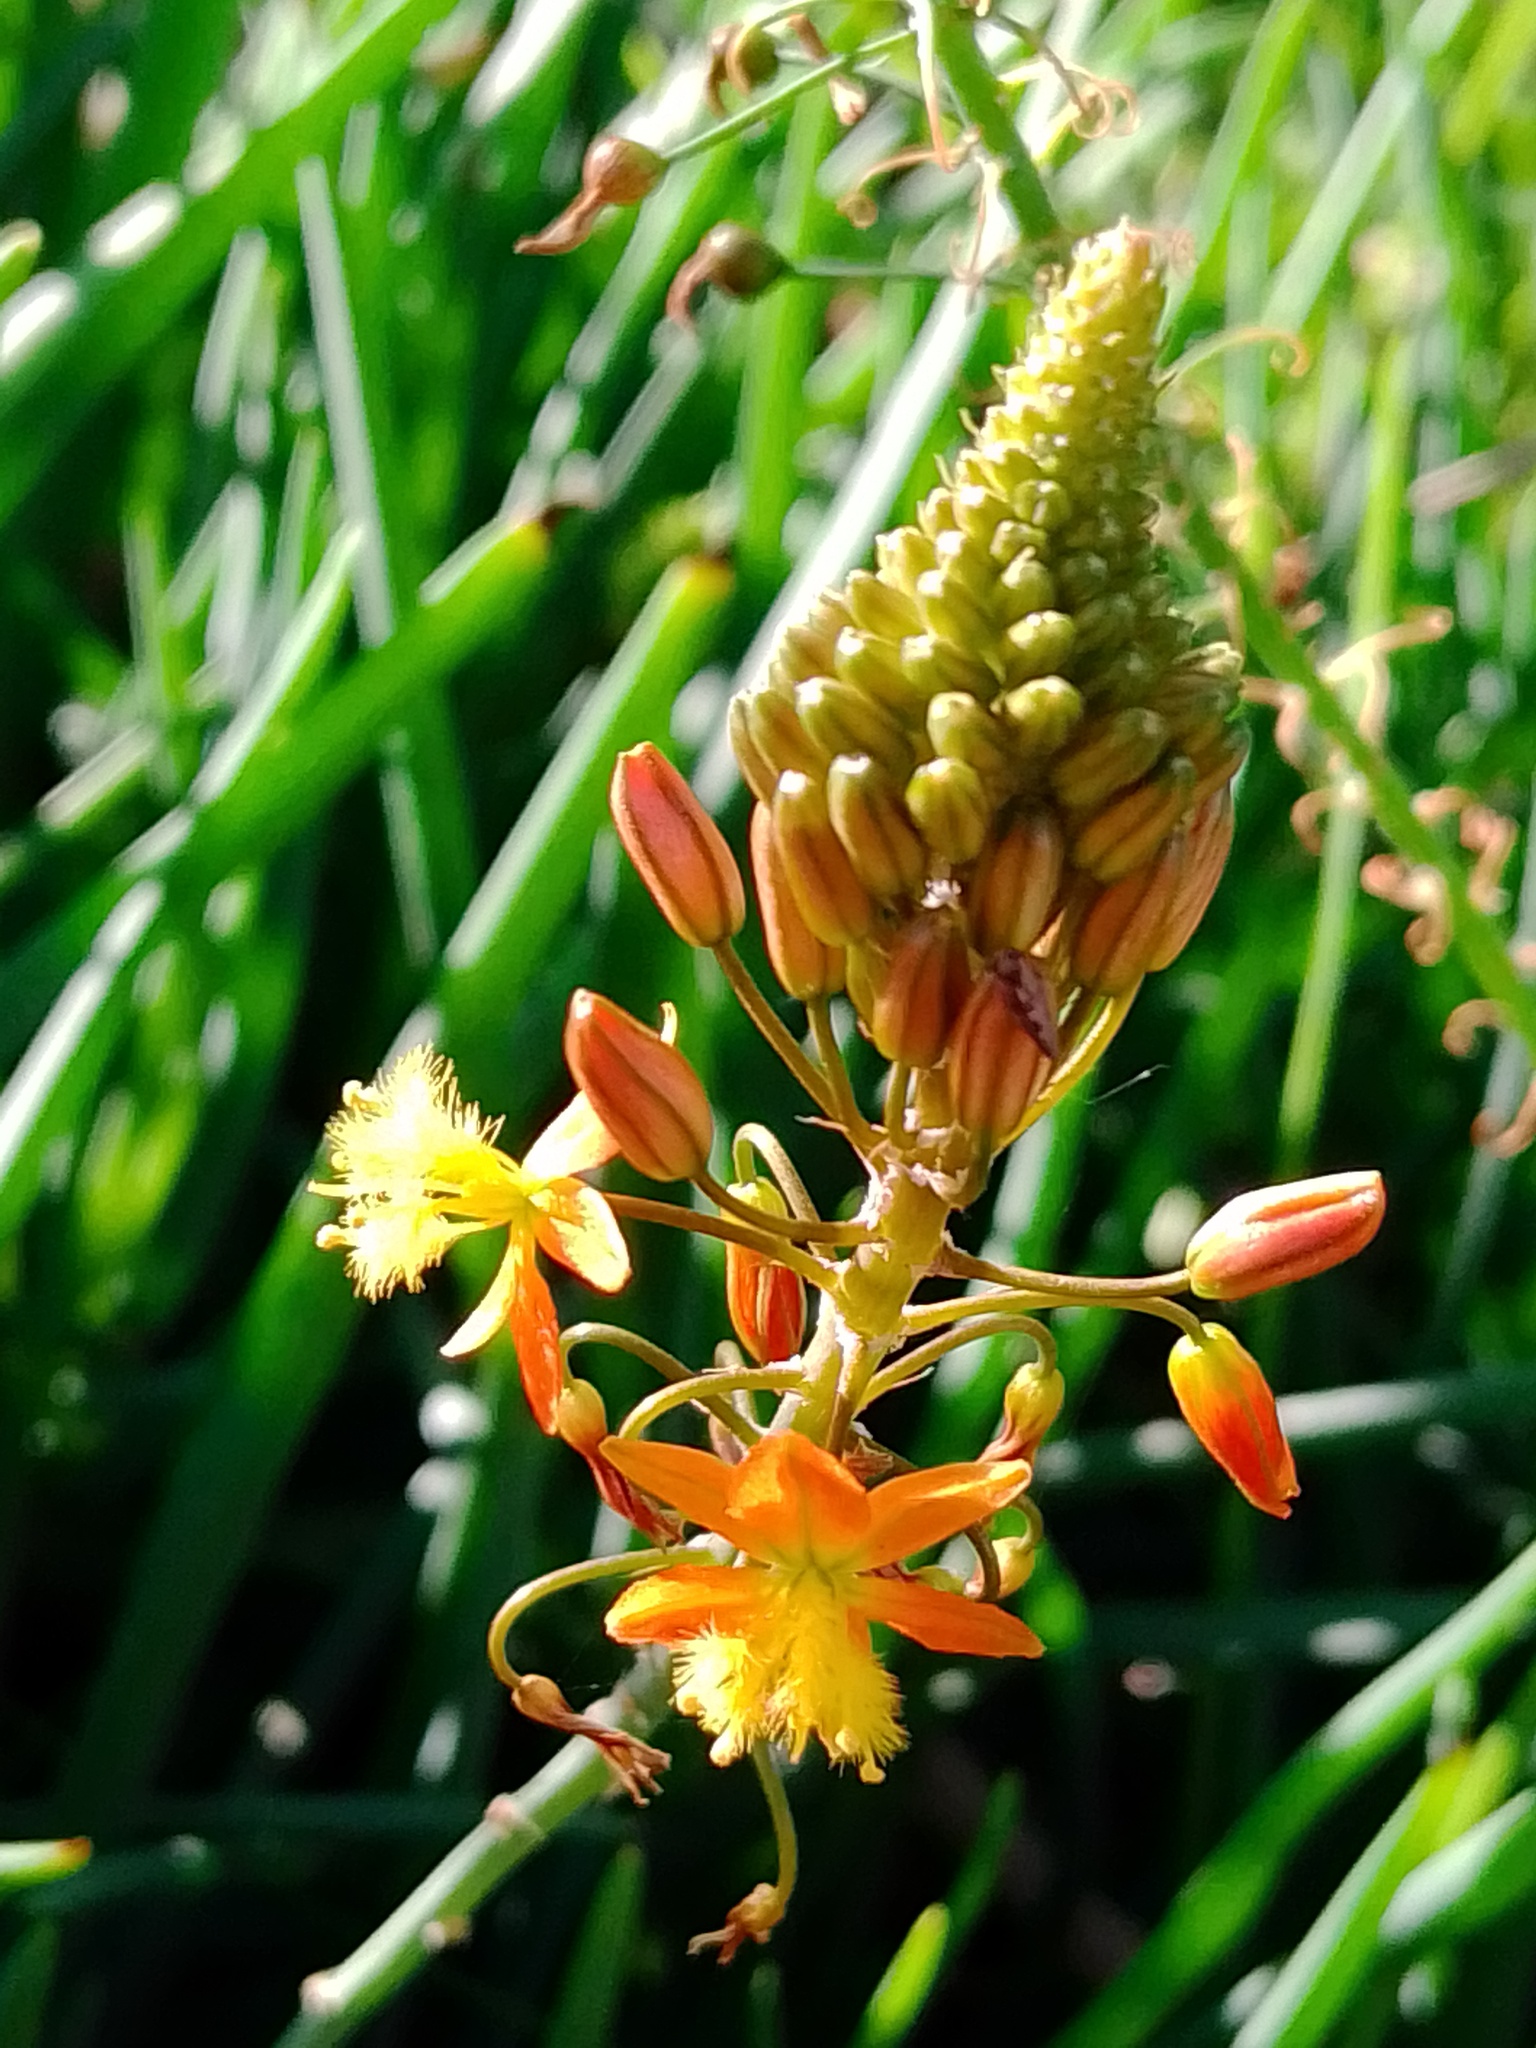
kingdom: Plantae
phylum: Tracheophyta
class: Liliopsida
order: Asparagales
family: Asphodelaceae
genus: Bulbine
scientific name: Bulbine frutescens
